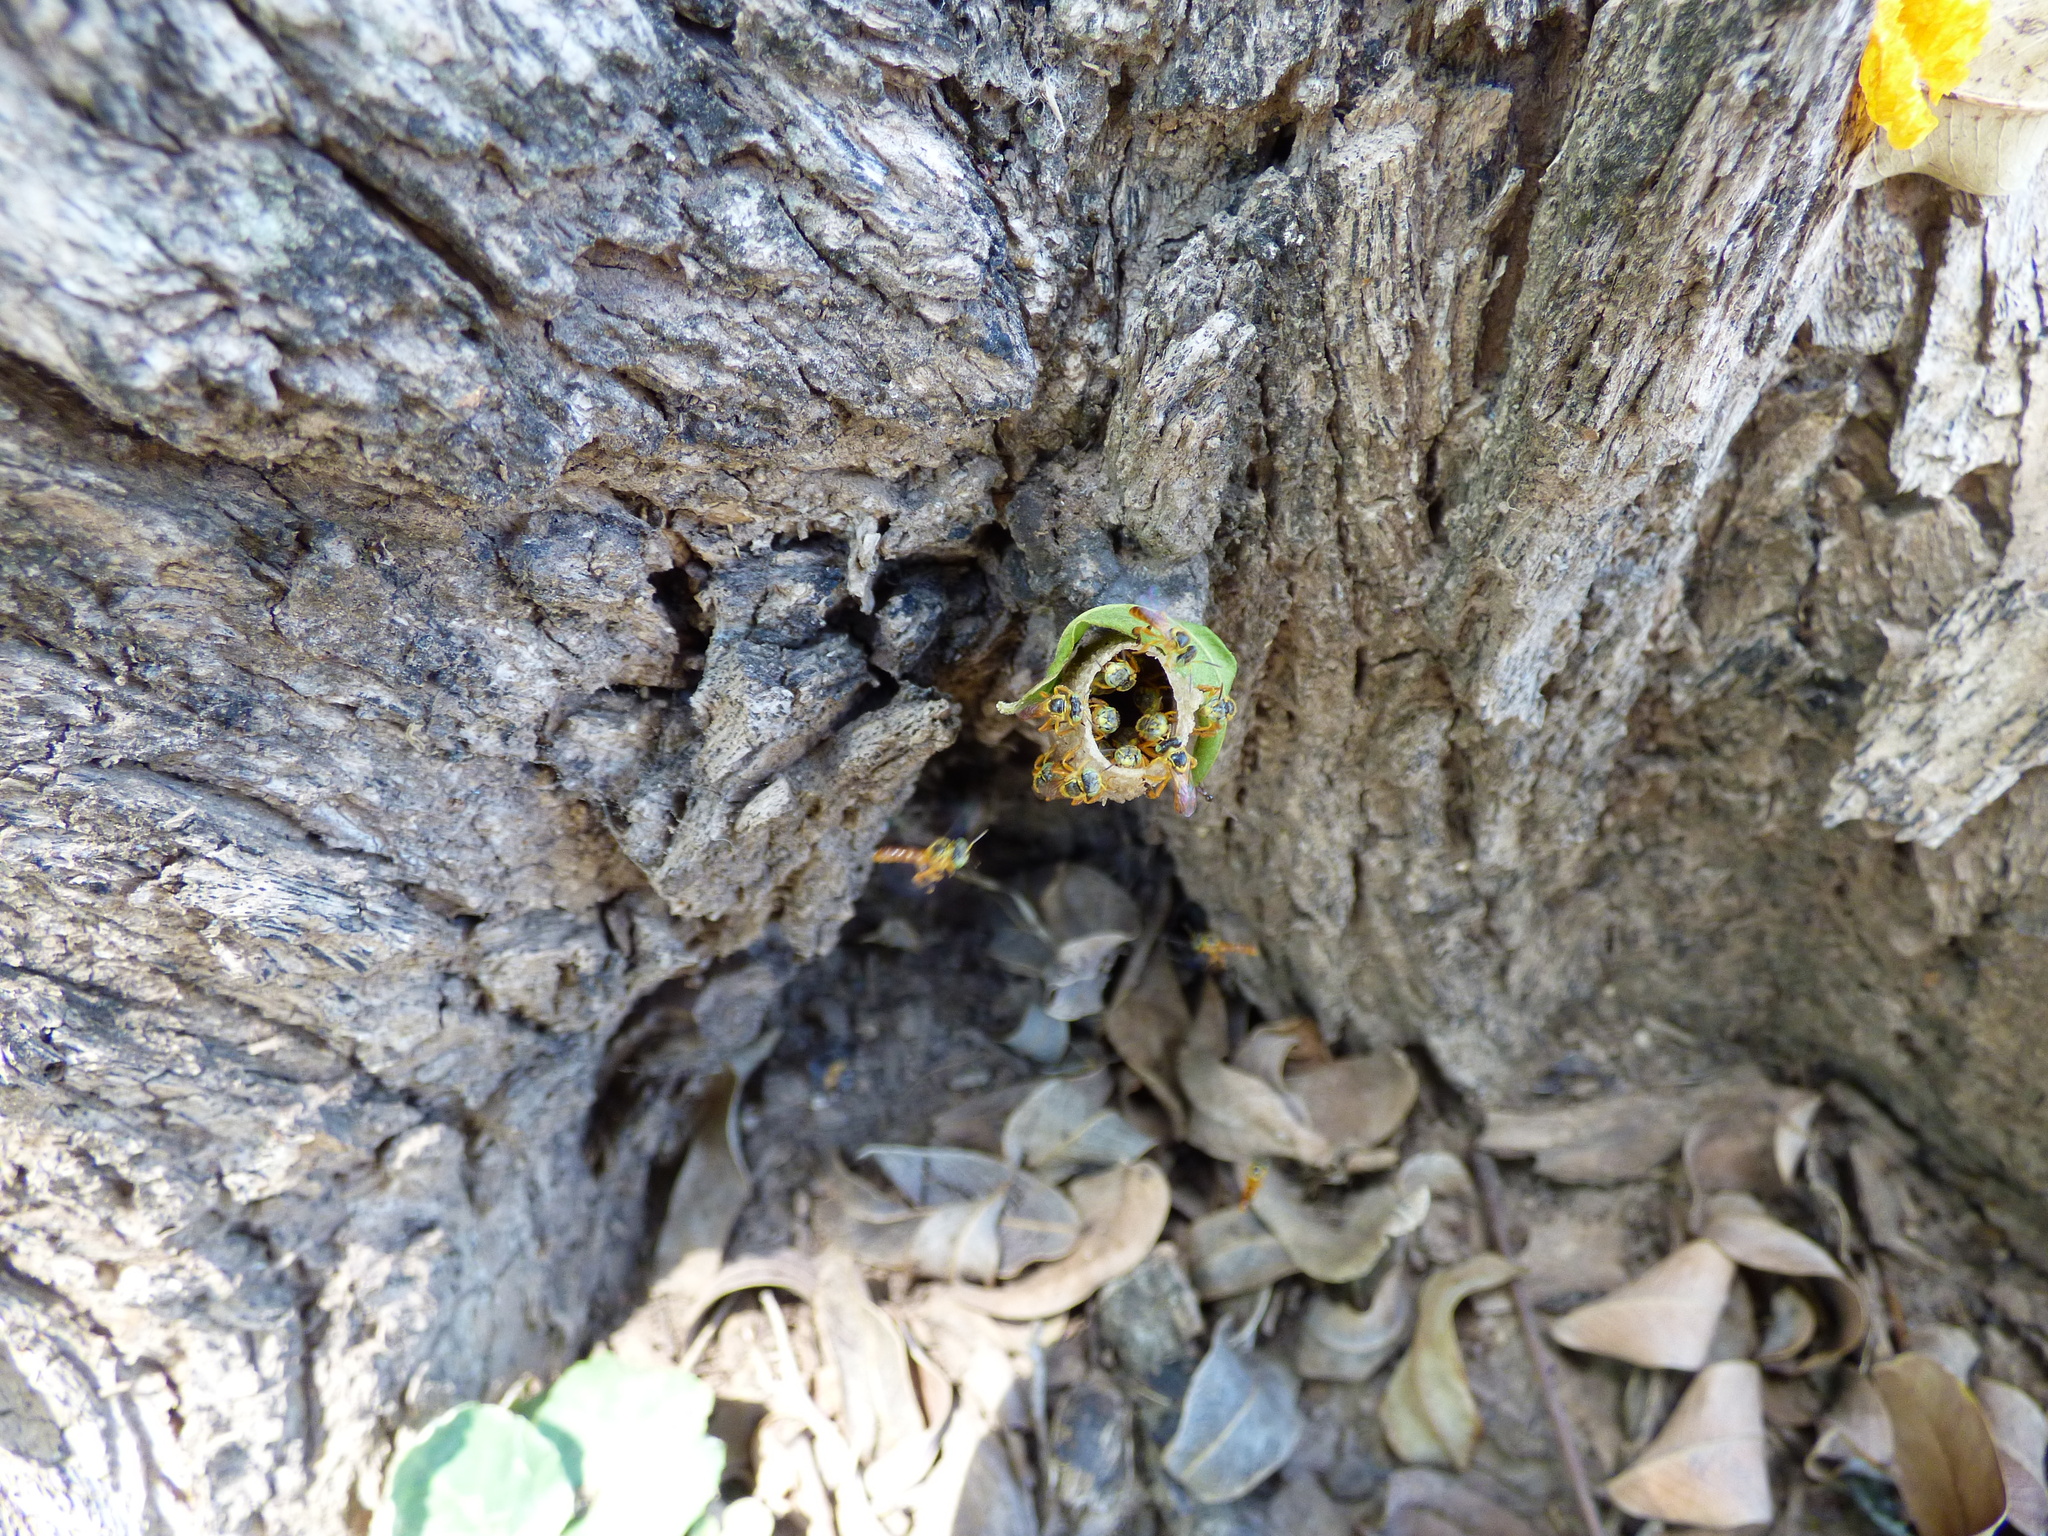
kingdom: Animalia
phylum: Arthropoda
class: Insecta
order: Hymenoptera
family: Apidae
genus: Tetragonisca
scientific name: Tetragonisca fiebrigi
